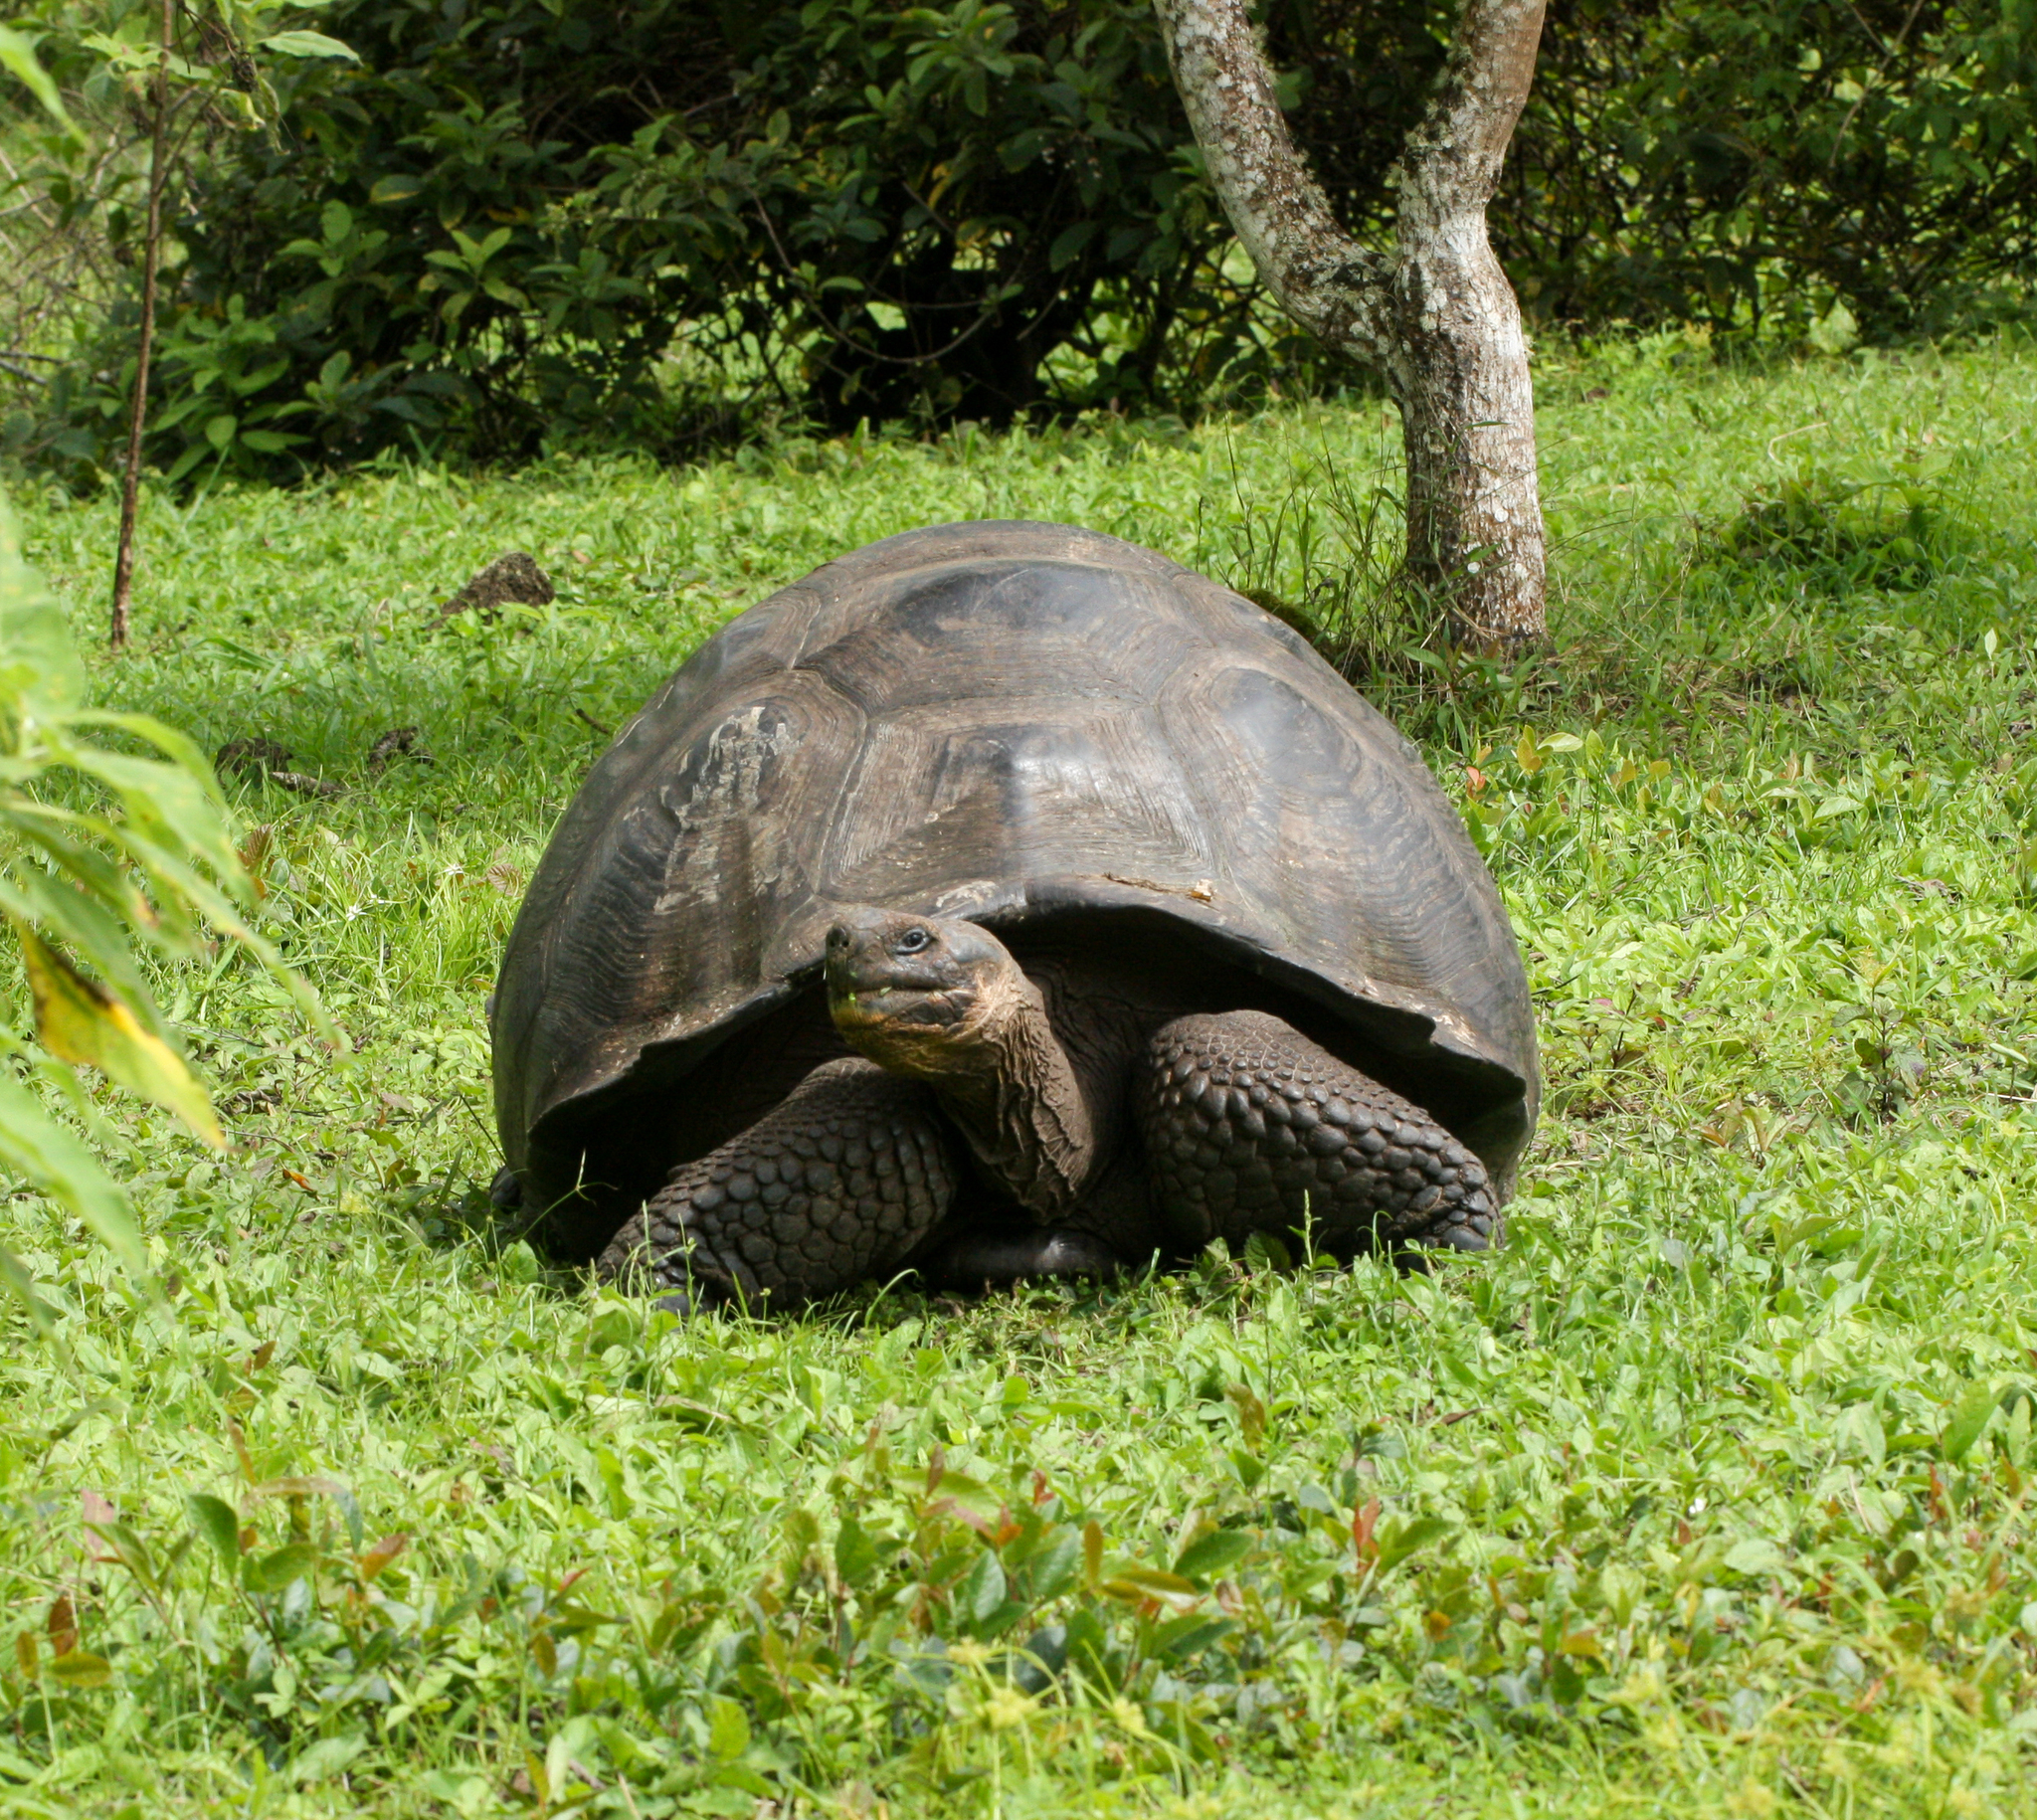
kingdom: Animalia
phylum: Chordata
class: Testudines
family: Testudinidae
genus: Chelonoidis
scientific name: Chelonoidis porteri
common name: Indefatigable island giant tortoise
